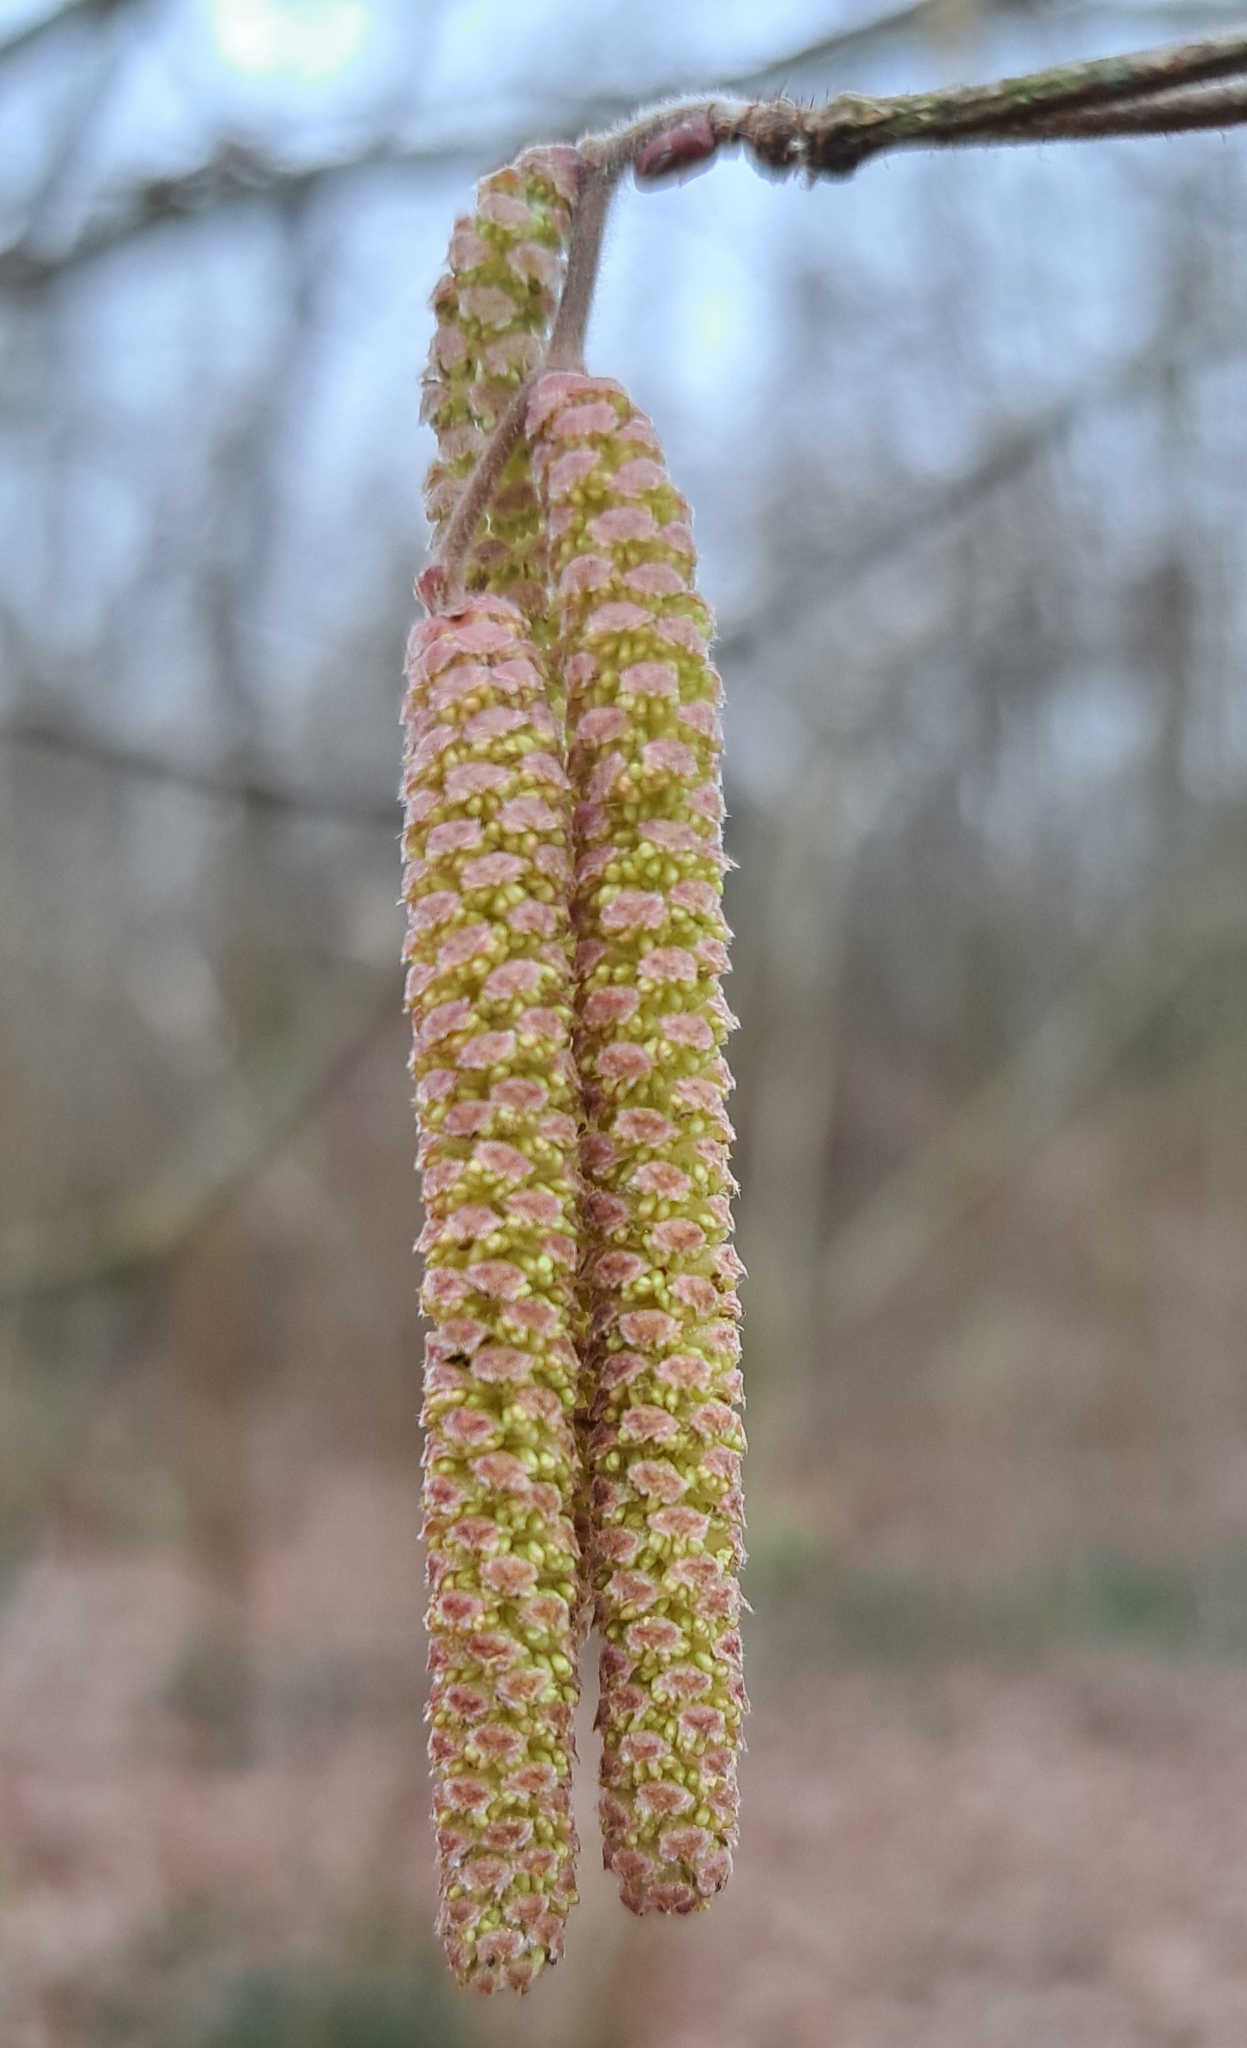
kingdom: Plantae
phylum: Tracheophyta
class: Magnoliopsida
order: Fagales
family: Betulaceae
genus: Corylus
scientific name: Corylus avellana
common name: European hazel
